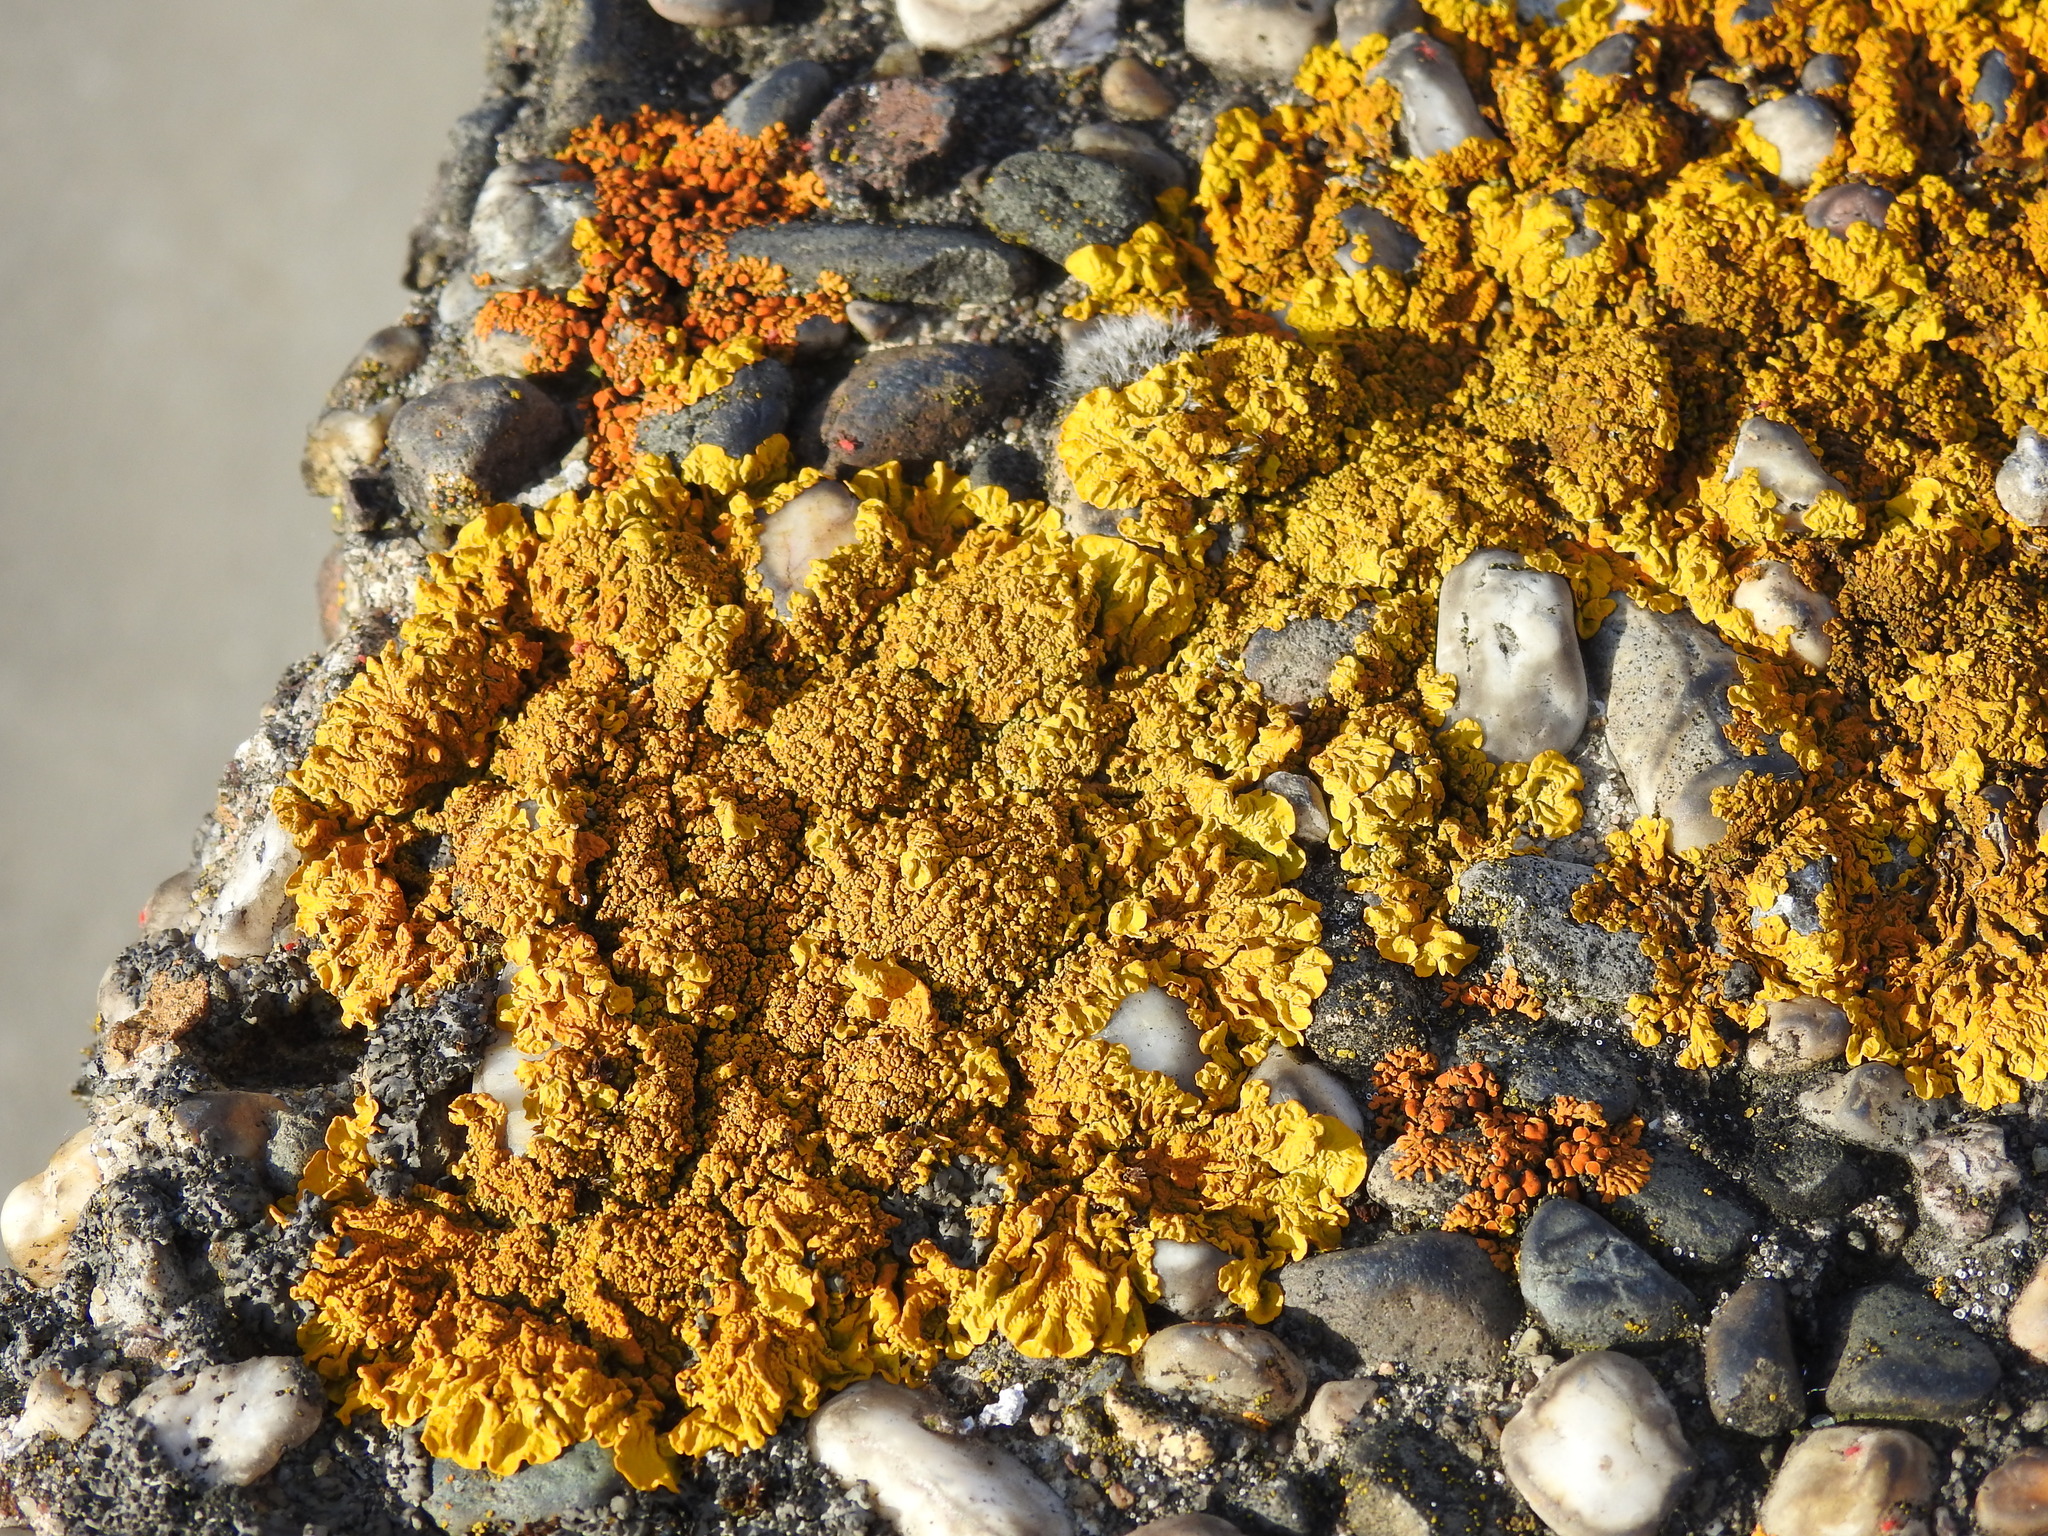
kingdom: Fungi
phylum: Ascomycota
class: Lecanoromycetes
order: Teloschistales
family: Teloschistaceae
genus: Xanthoria
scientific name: Xanthoria calcicola
